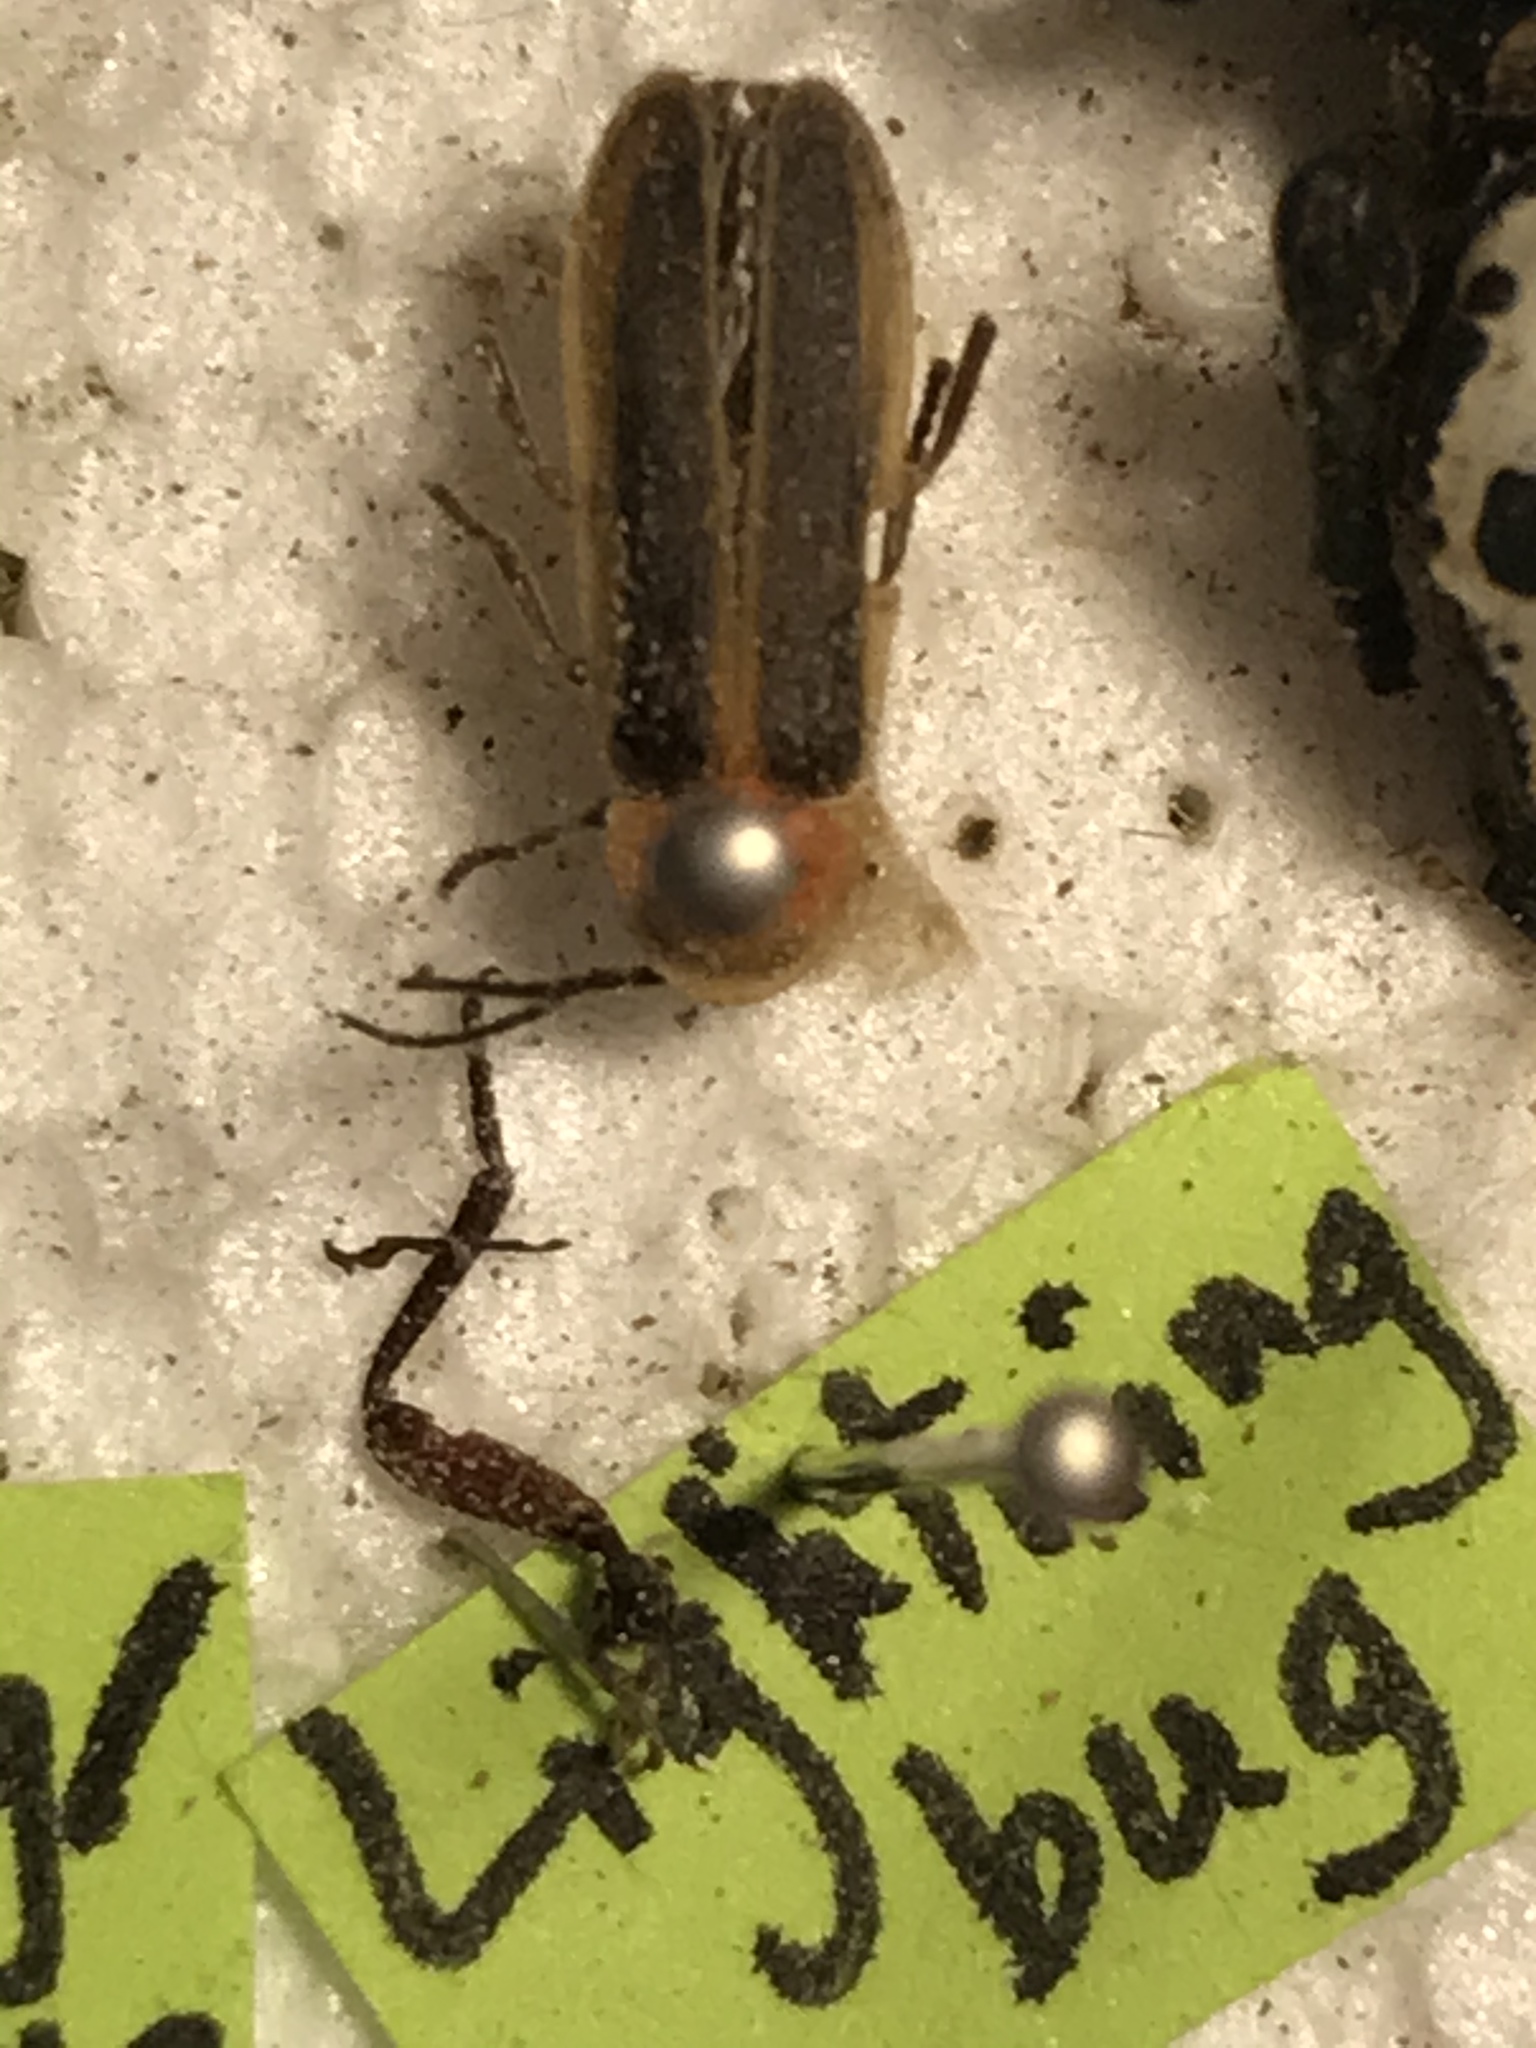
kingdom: Animalia
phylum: Arthropoda
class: Insecta
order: Coleoptera
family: Lampyridae
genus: Photinus
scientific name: Photinus pyralis
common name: Big dipper firefly
